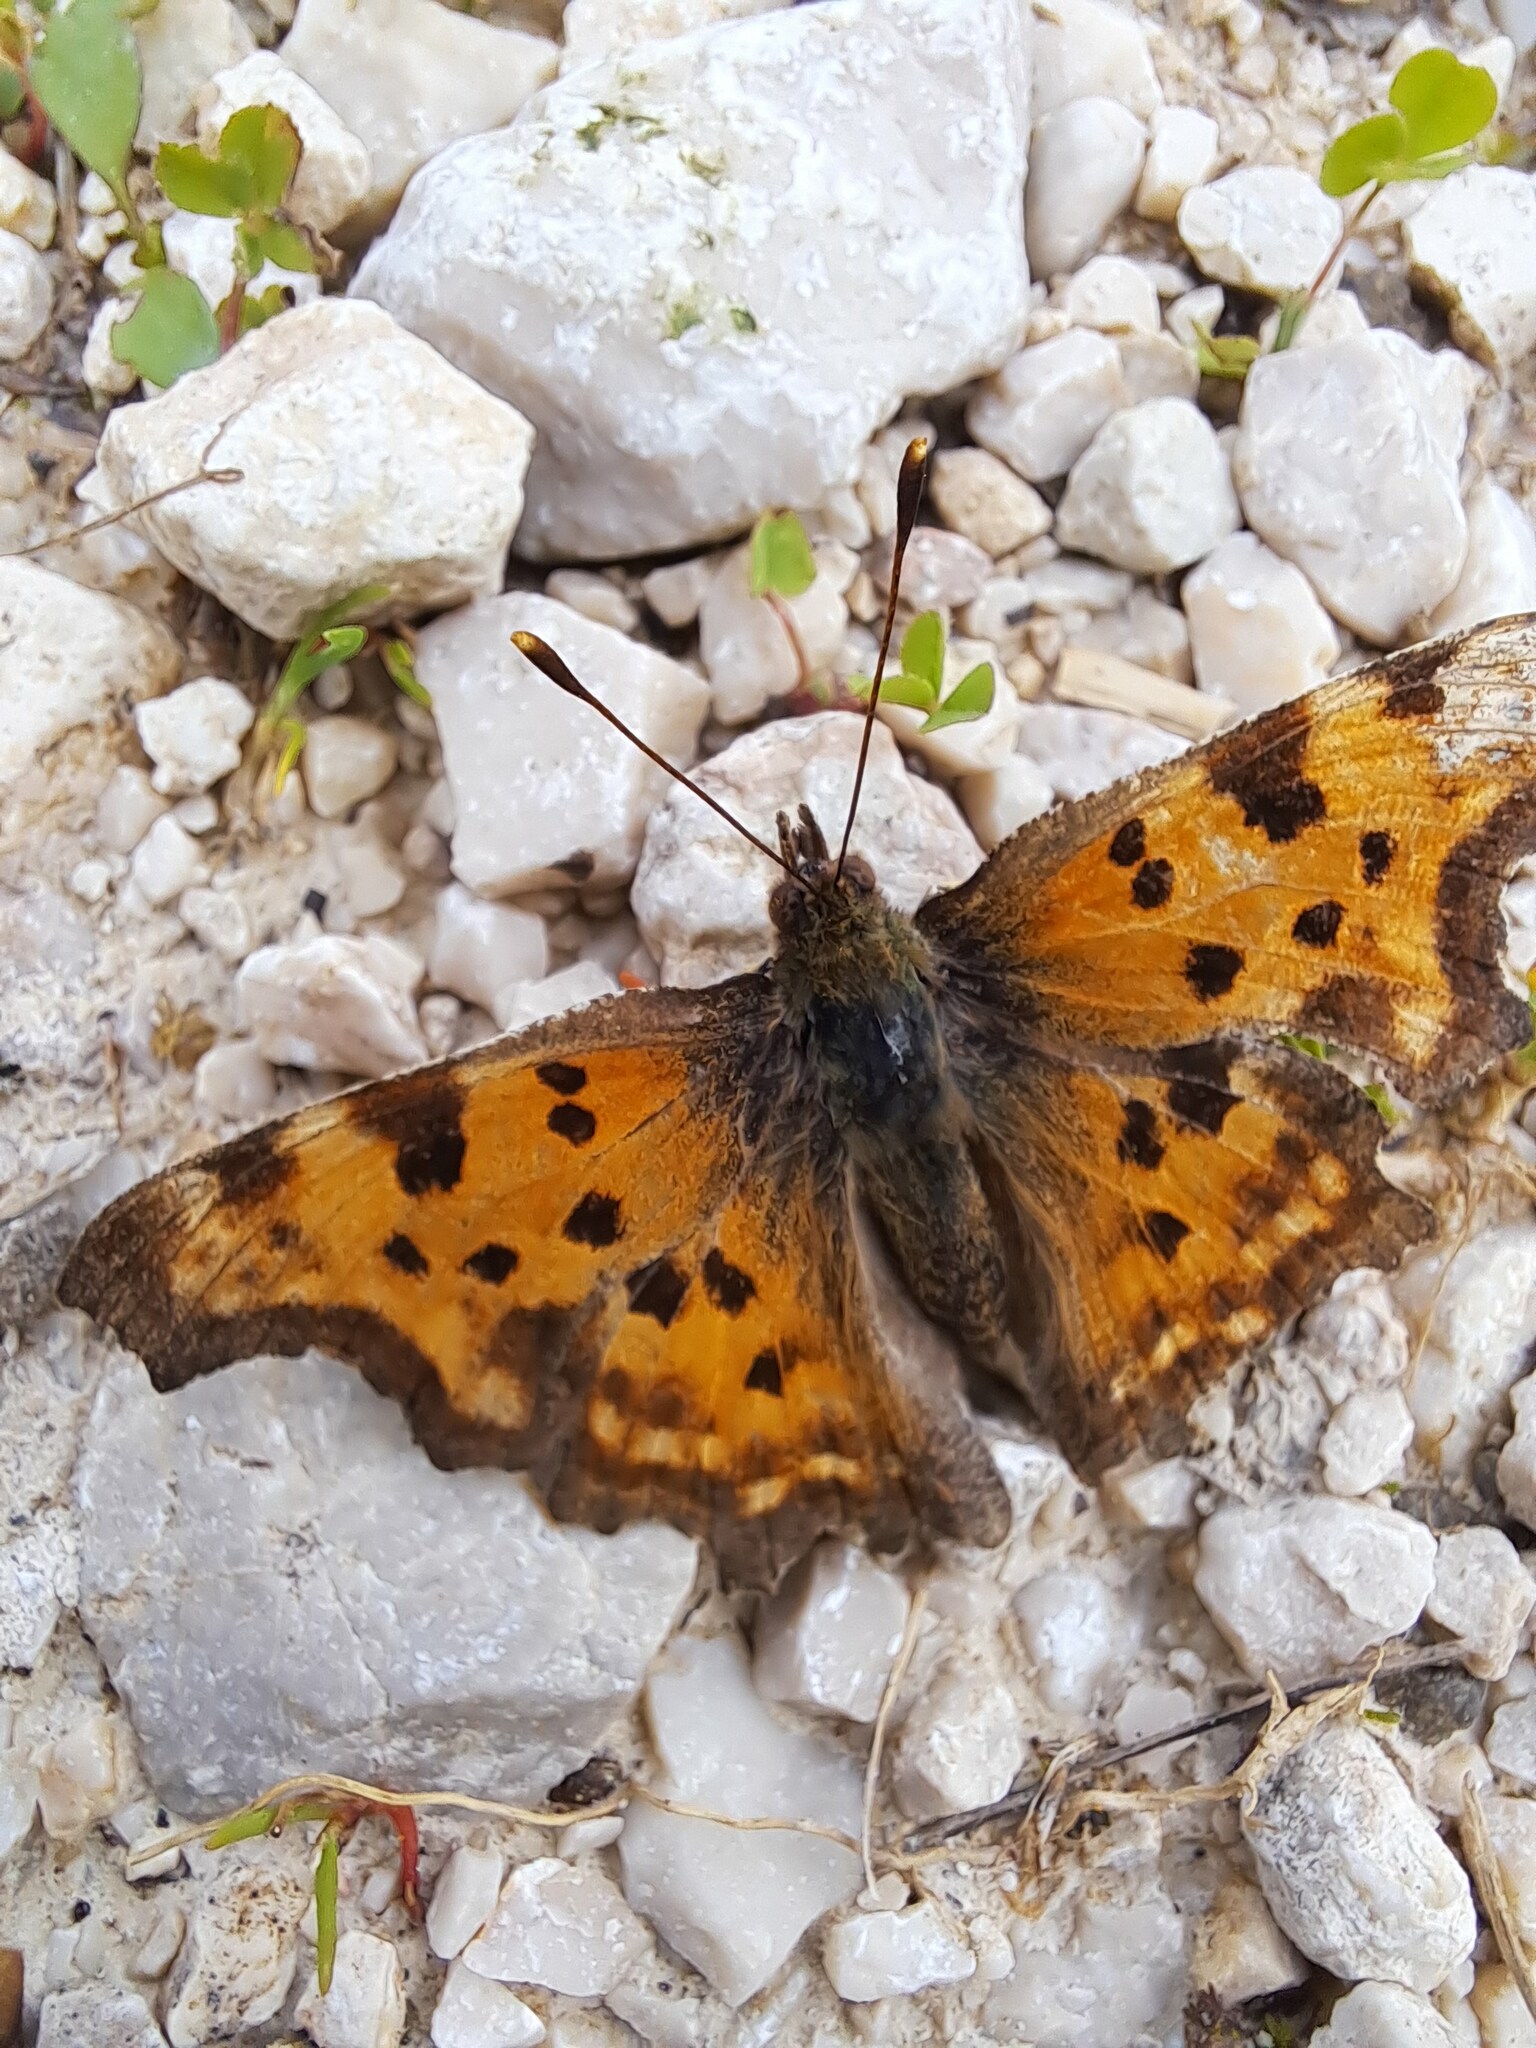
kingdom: Animalia
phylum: Arthropoda
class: Insecta
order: Lepidoptera
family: Nymphalidae
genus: Polygonia
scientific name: Polygonia c-album
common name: Comma
